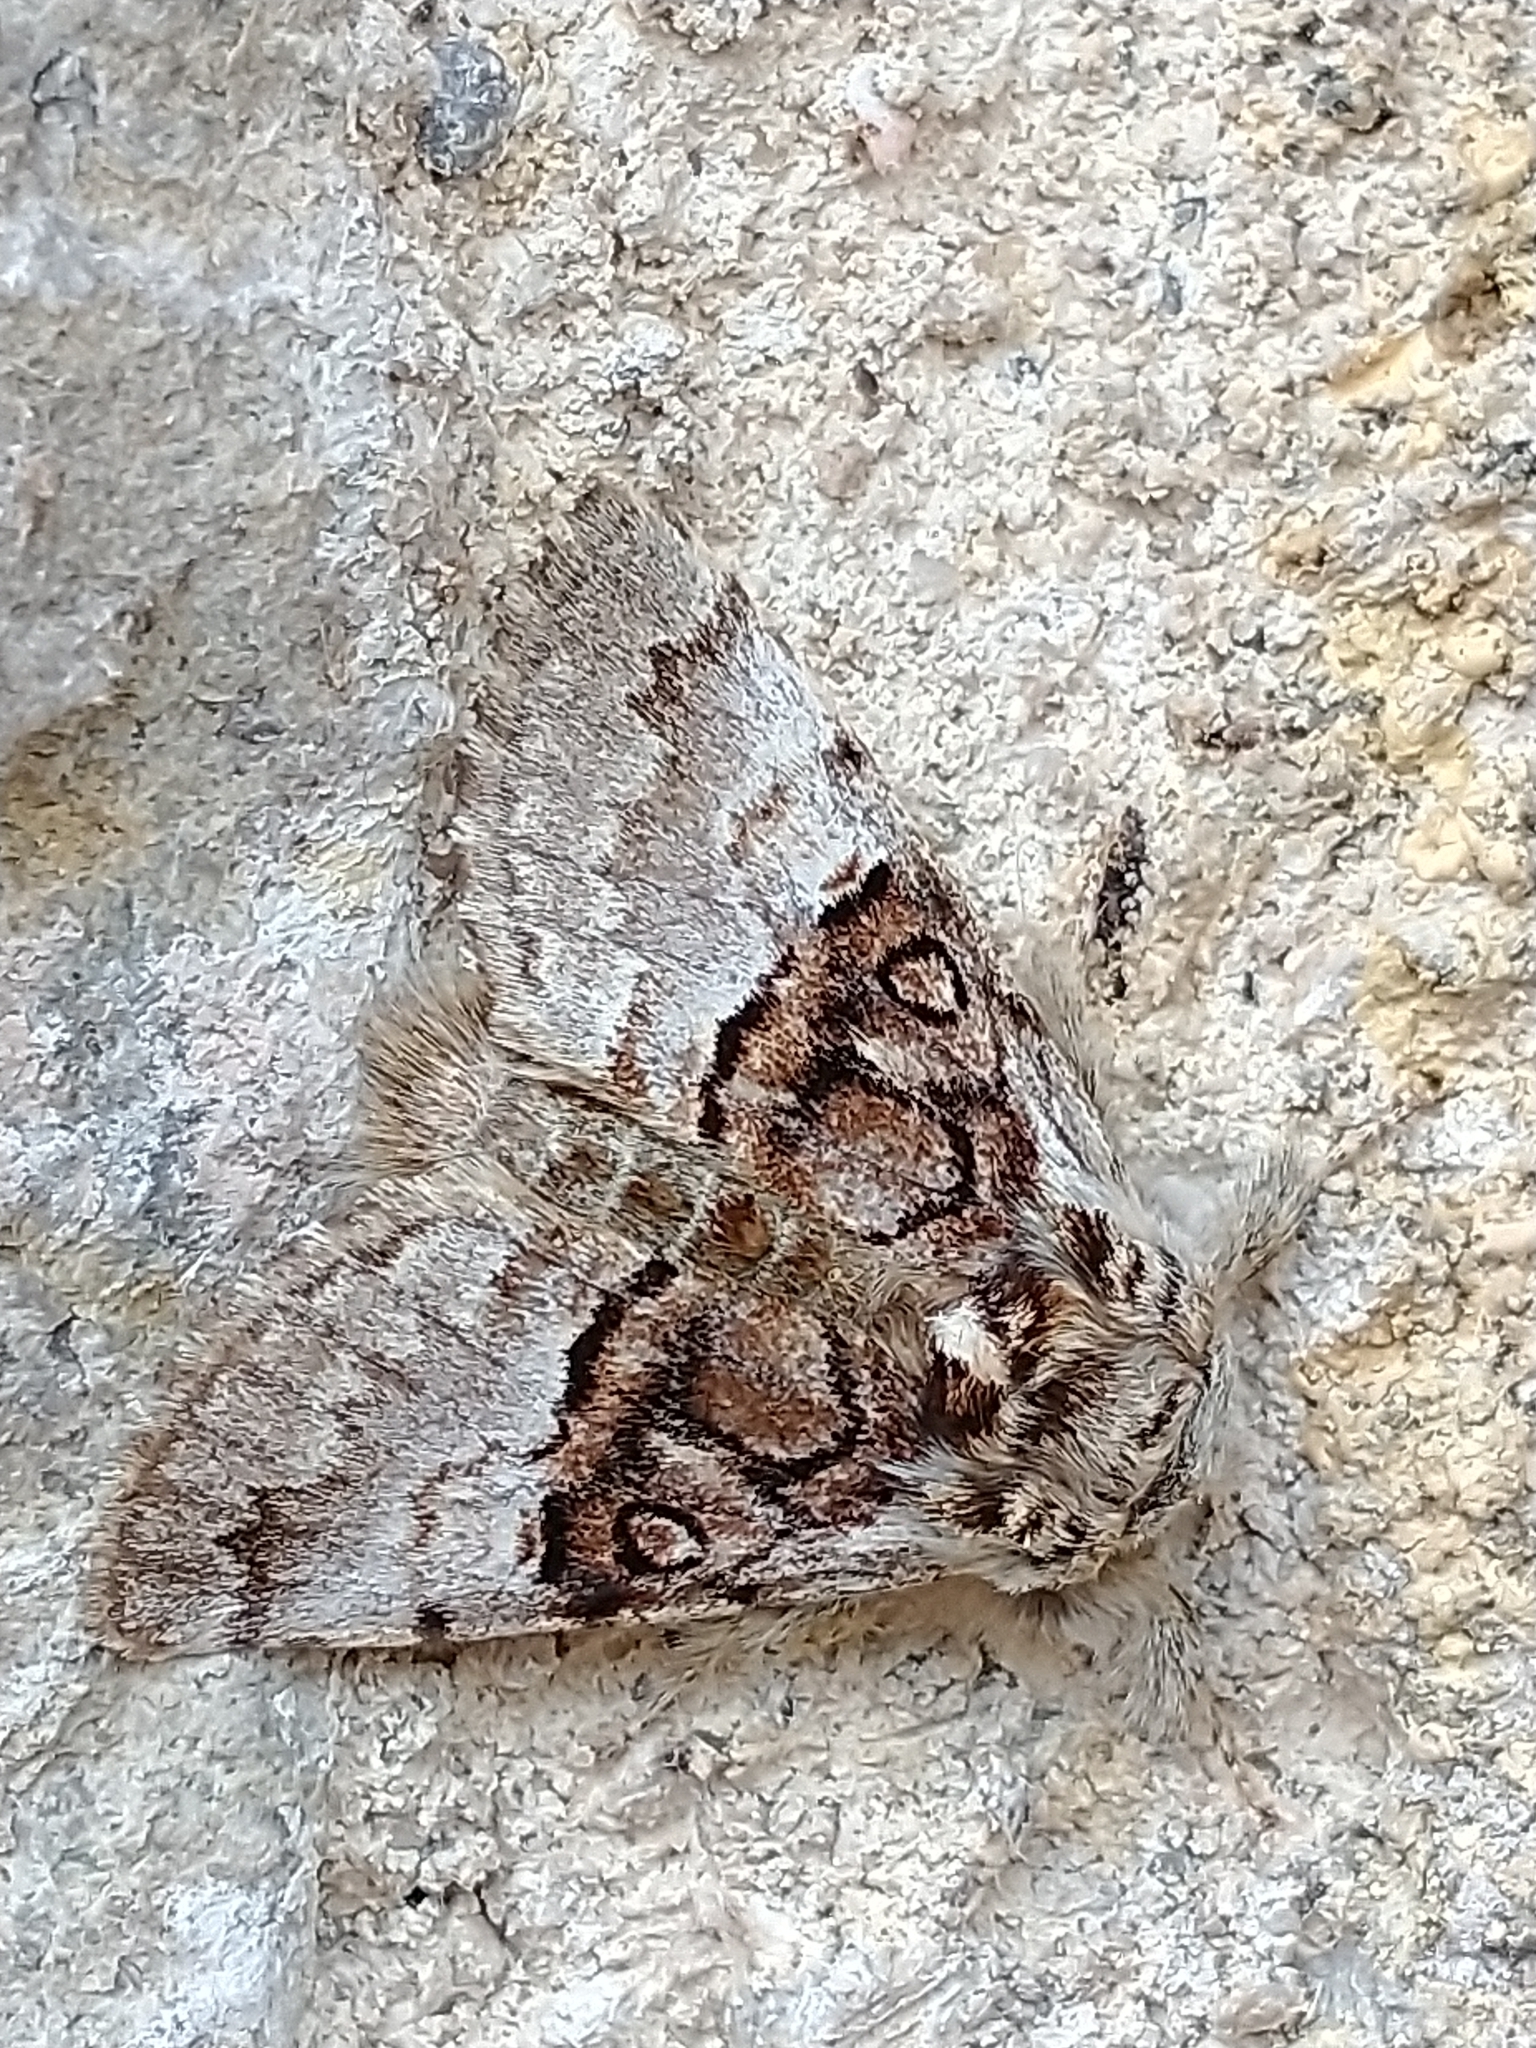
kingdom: Animalia
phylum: Arthropoda
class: Insecta
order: Lepidoptera
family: Noctuidae
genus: Colocasia
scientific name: Colocasia coryli
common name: Nut-tree tussock
